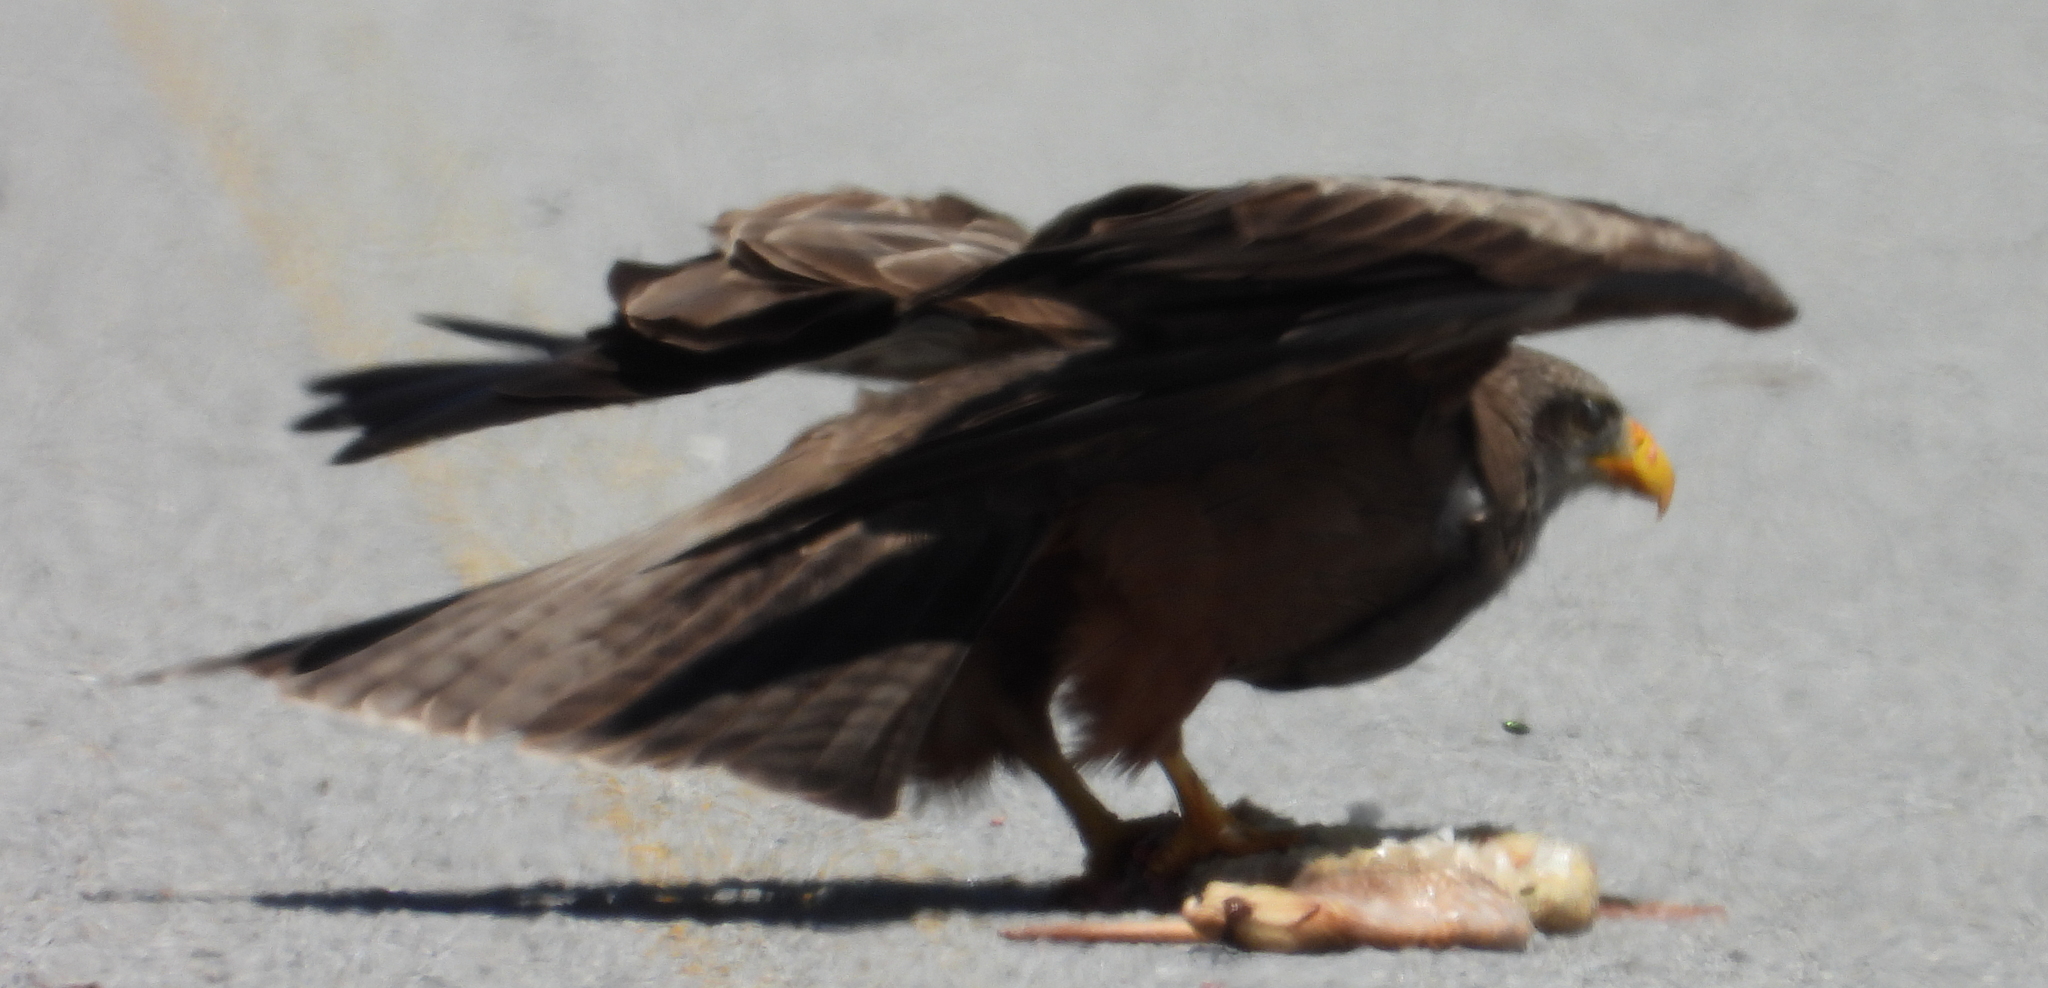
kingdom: Animalia
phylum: Chordata
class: Aves
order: Accipitriformes
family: Accipitridae
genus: Milvus
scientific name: Milvus migrans
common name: Black kite
